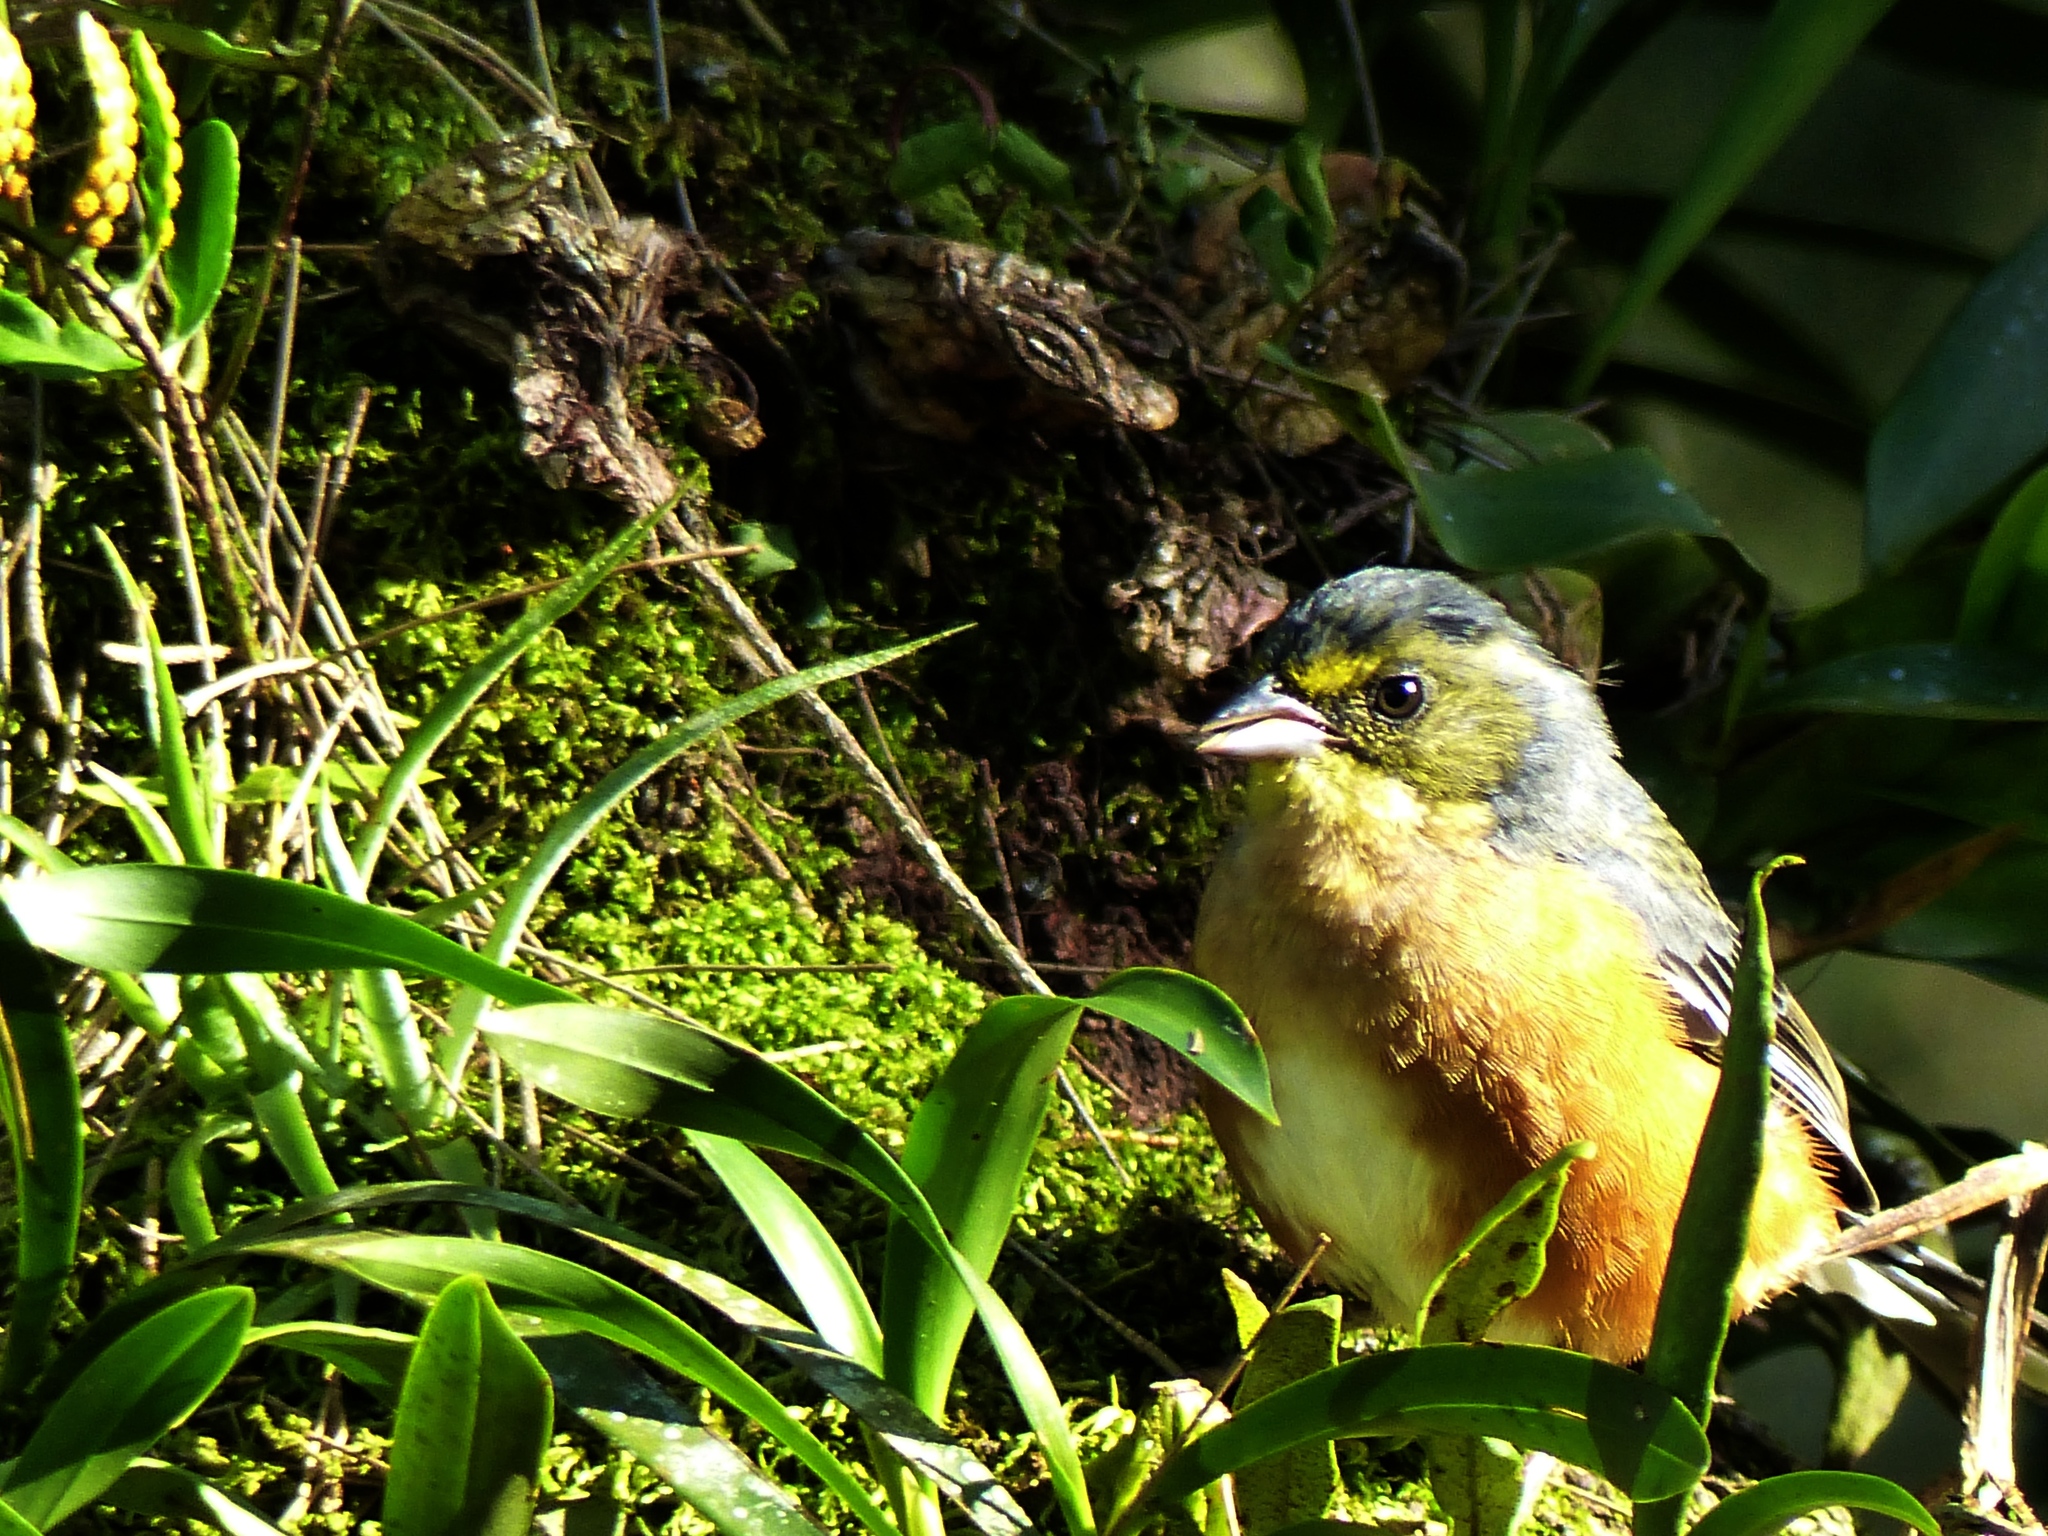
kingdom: Animalia
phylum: Chordata
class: Aves
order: Passeriformes
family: Thraupidae
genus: Microspingus
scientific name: Microspingus lateralis
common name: Buff-throated warbling-finch
